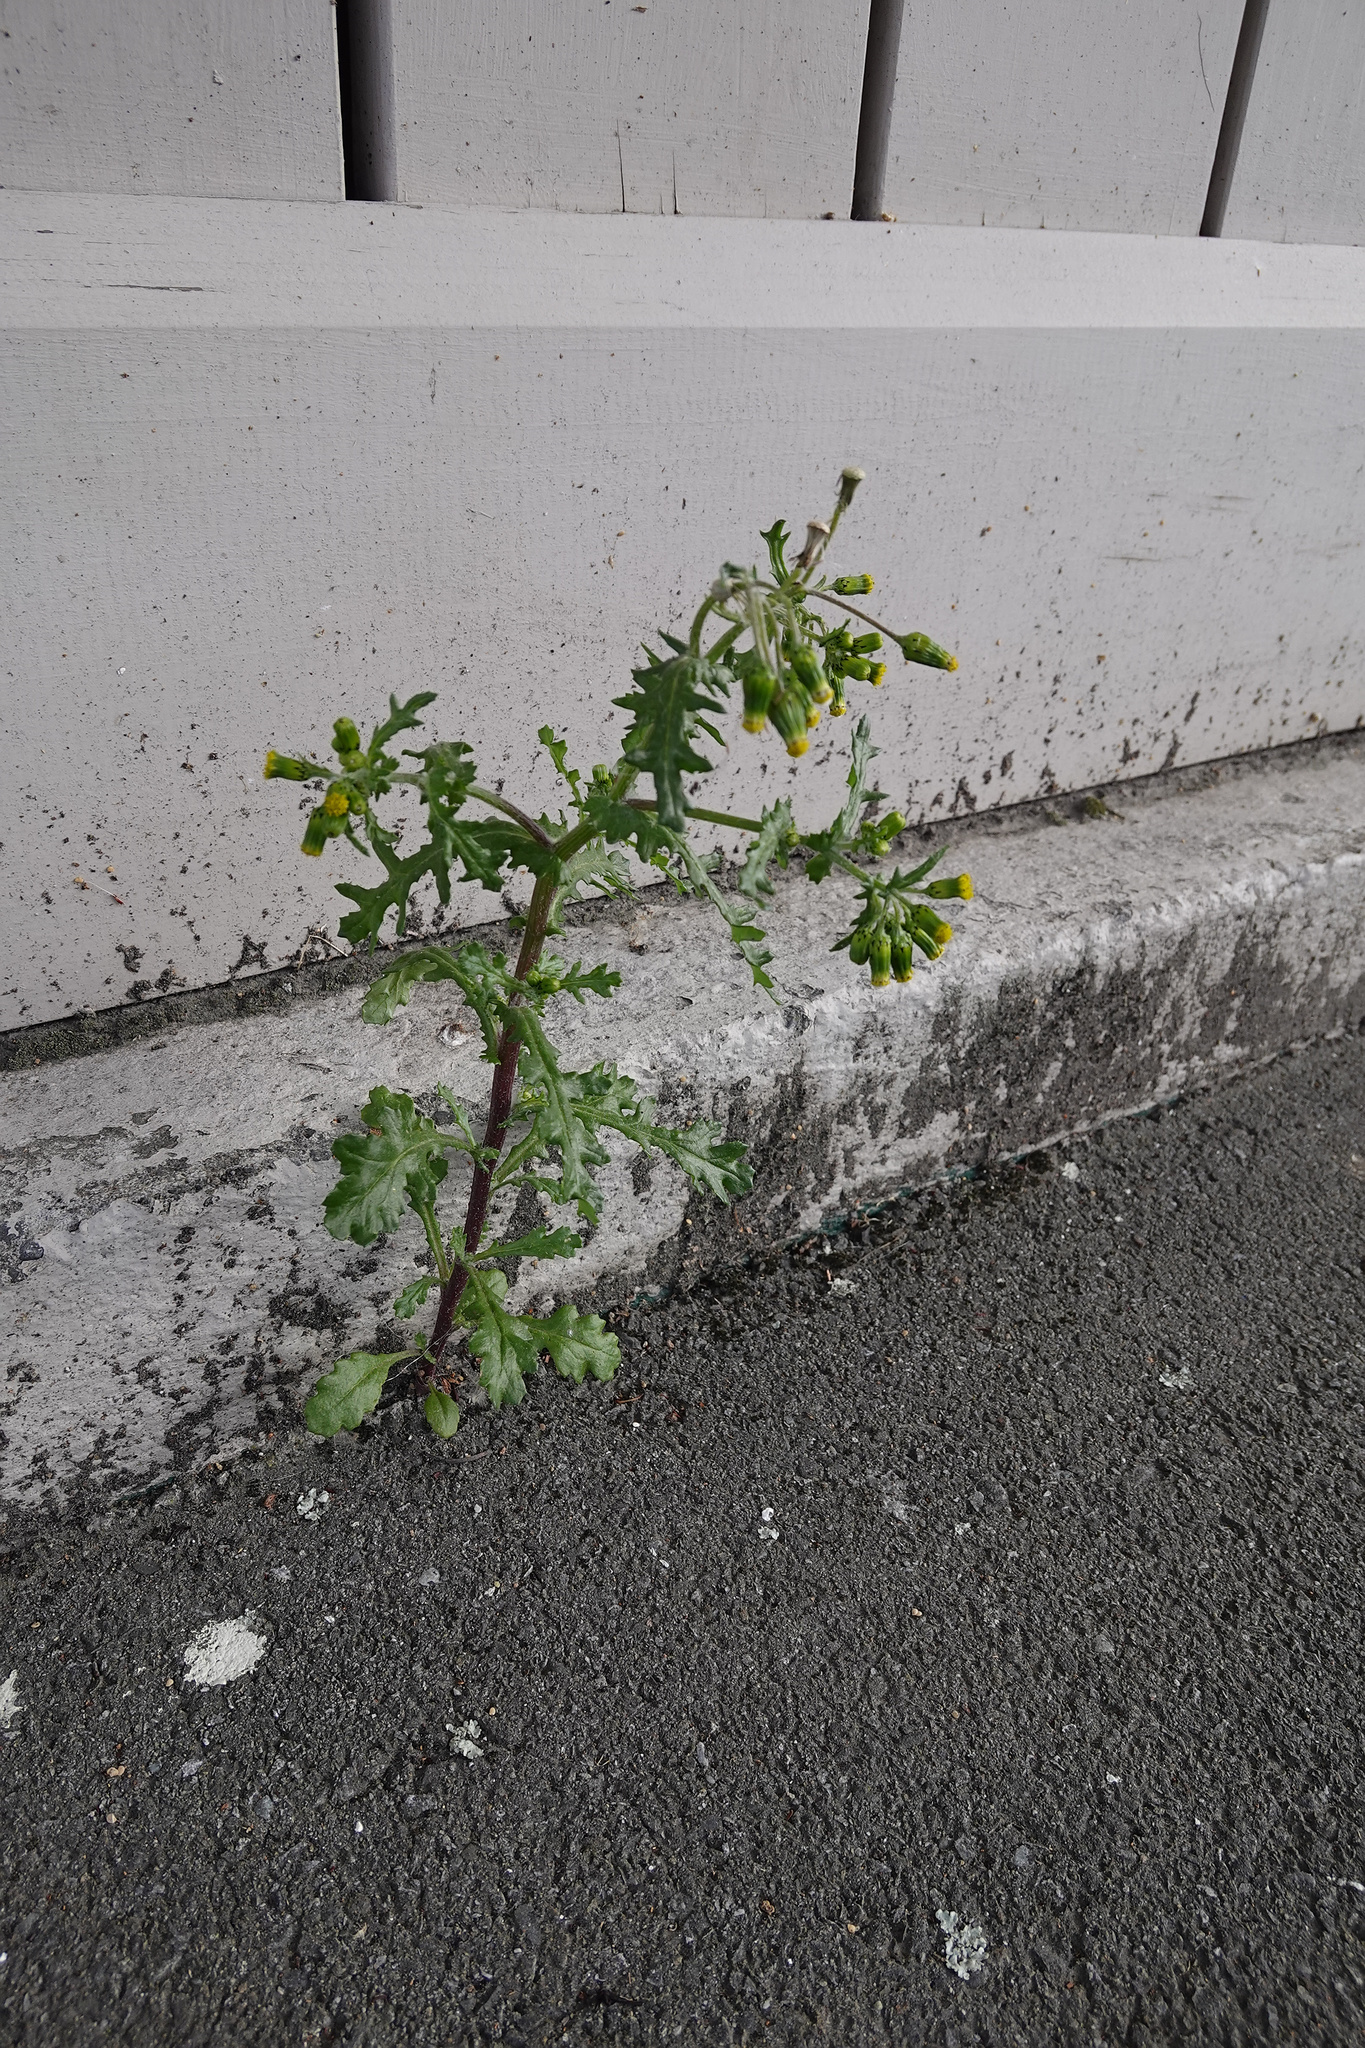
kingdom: Plantae
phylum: Tracheophyta
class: Magnoliopsida
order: Asterales
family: Asteraceae
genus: Senecio
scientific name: Senecio vulgaris
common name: Old-man-in-the-spring
